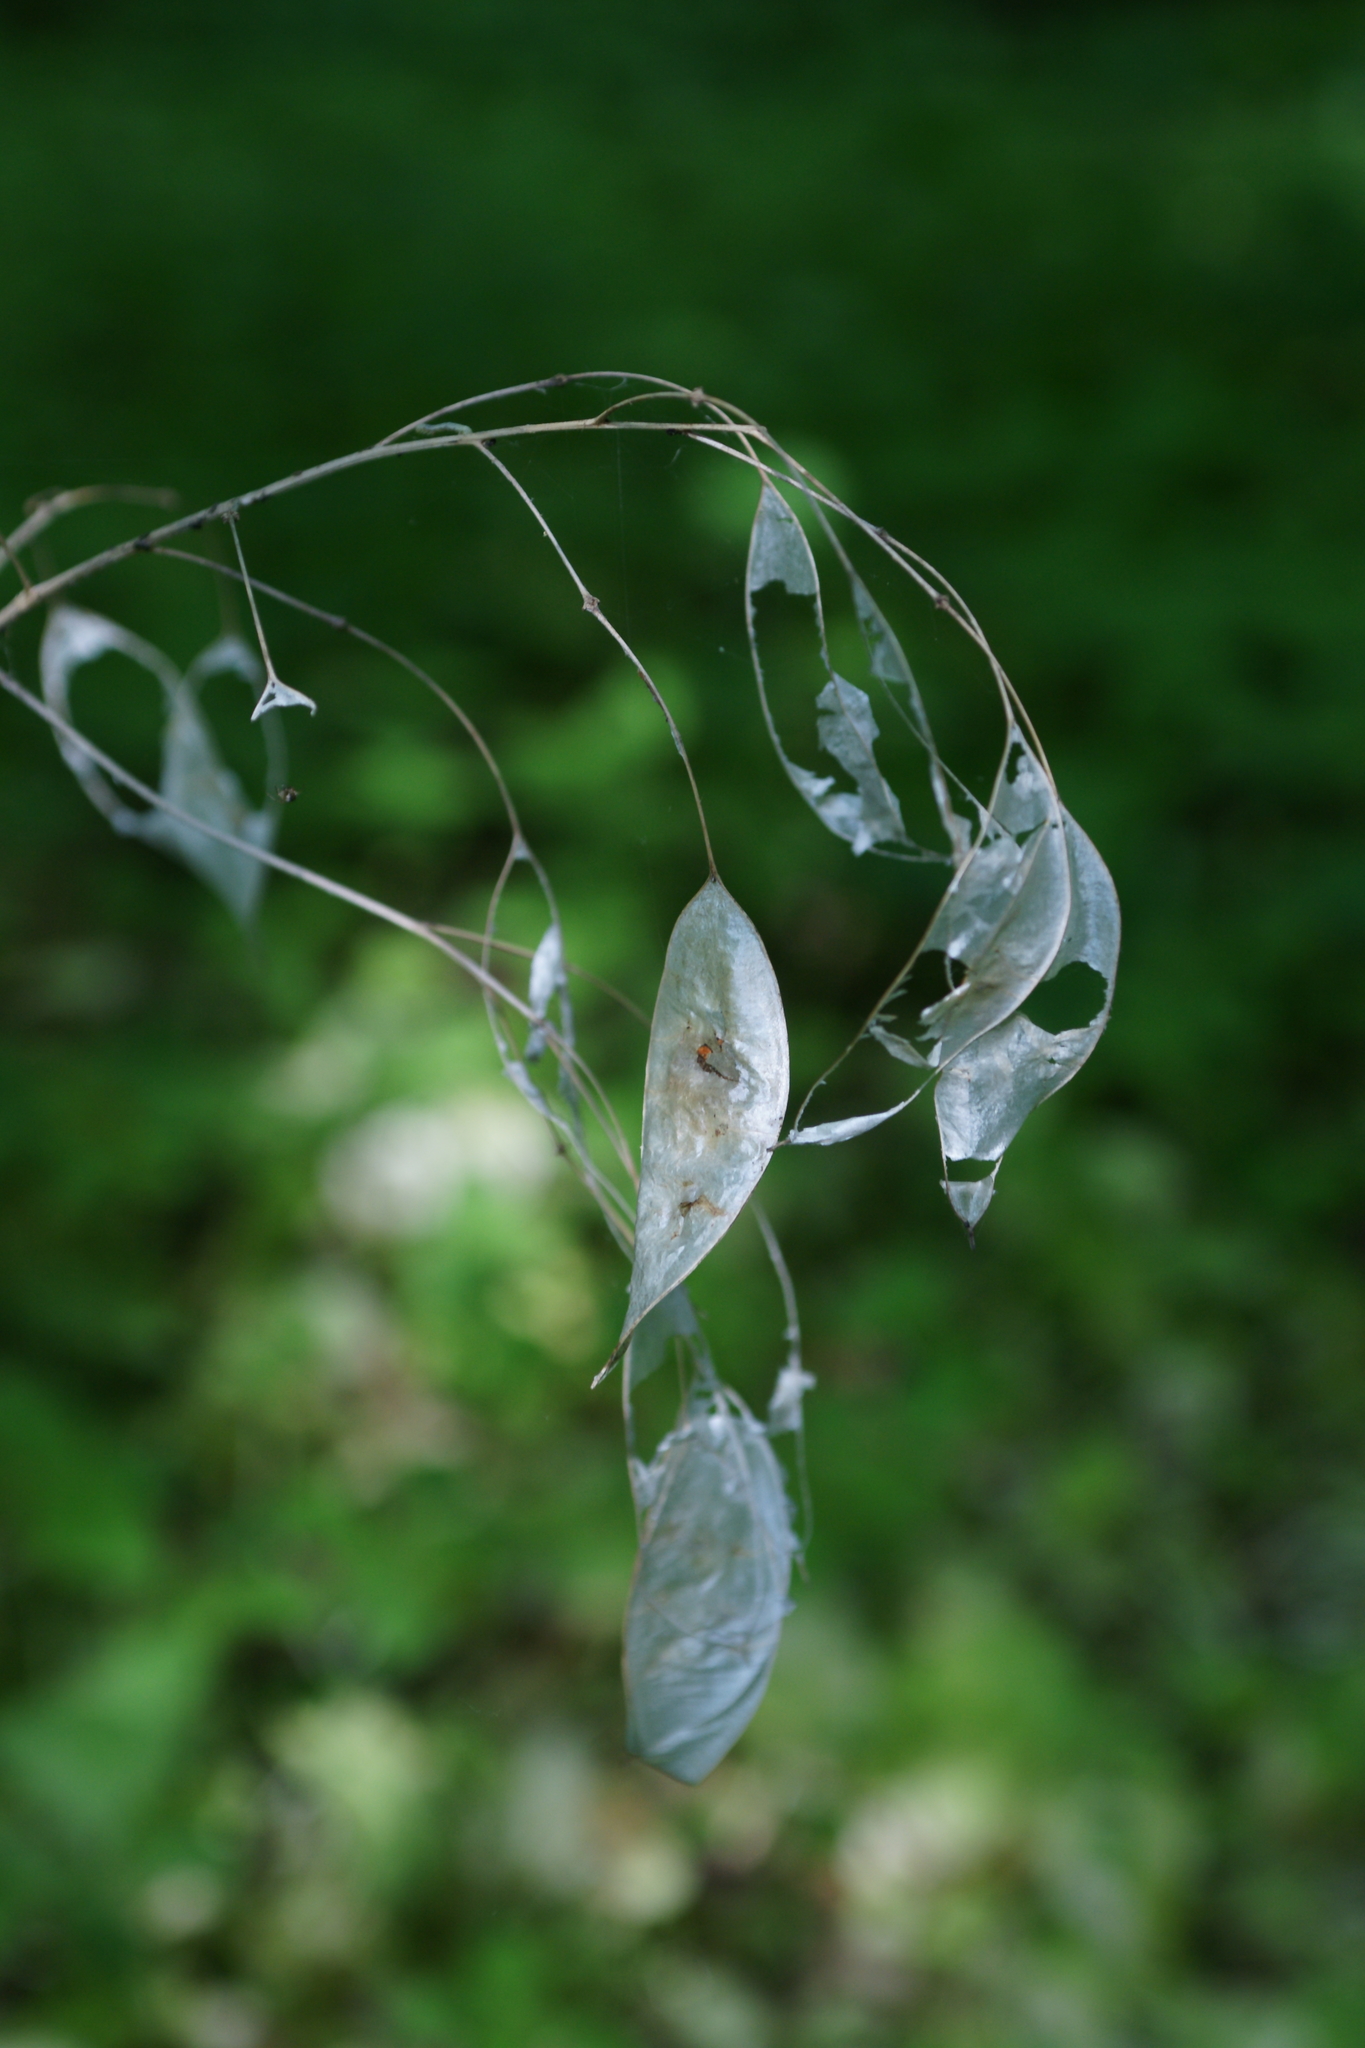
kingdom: Plantae
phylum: Tracheophyta
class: Magnoliopsida
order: Brassicales
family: Brassicaceae
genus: Lunaria
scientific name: Lunaria rediviva
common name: Perennial honesty
